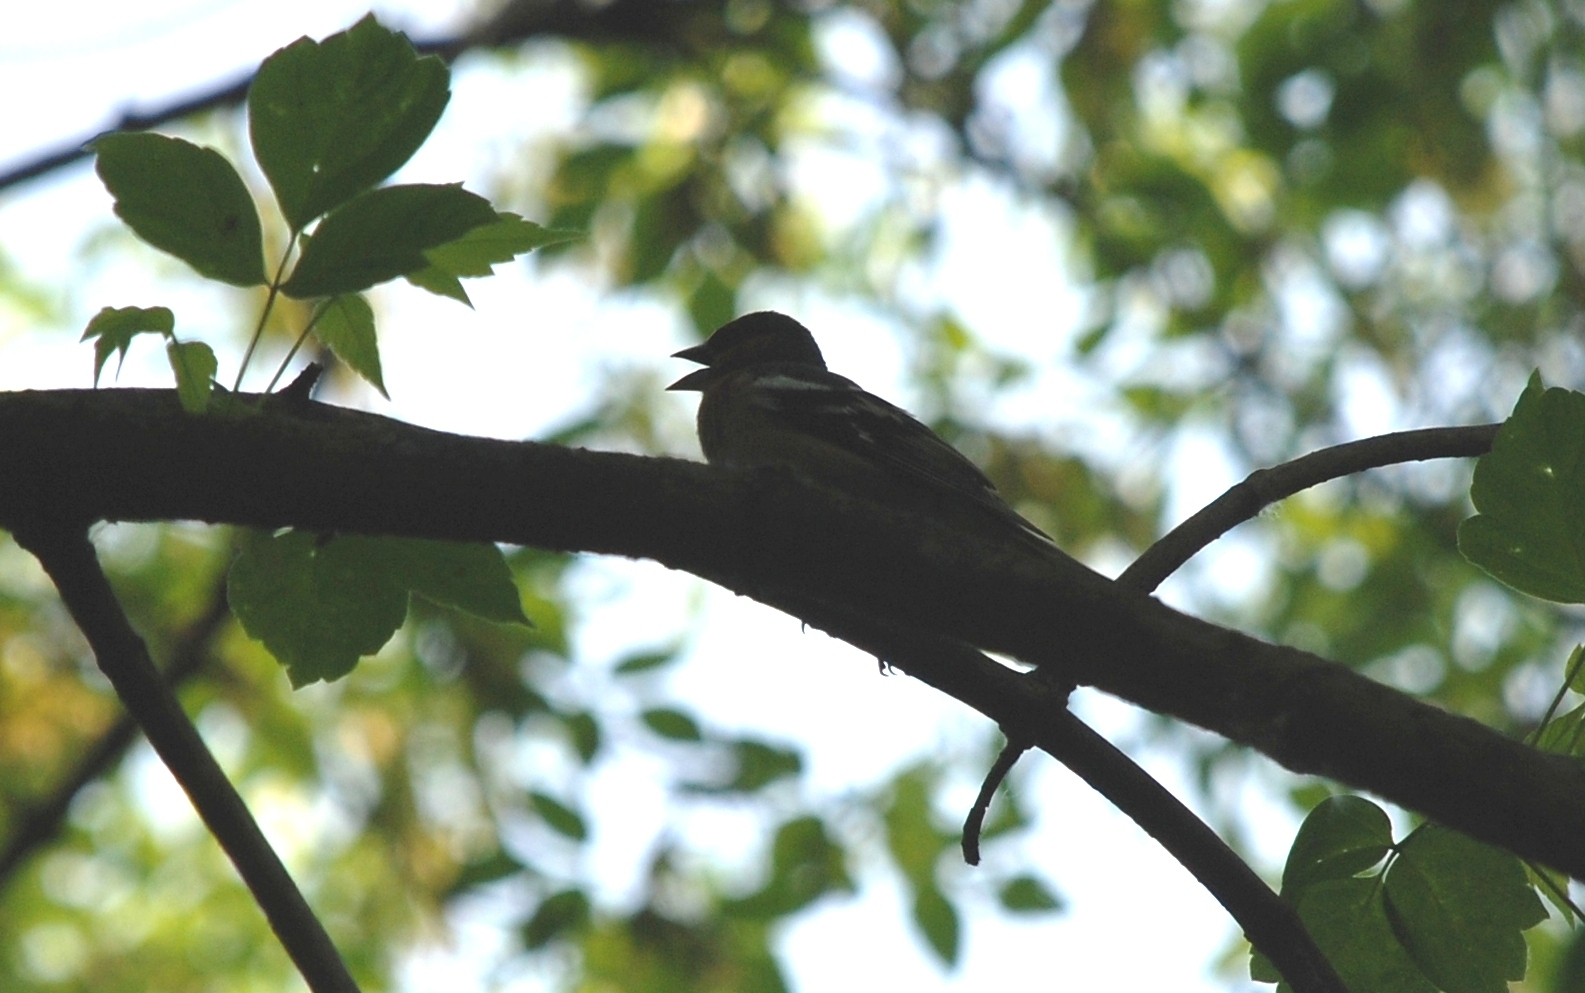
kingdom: Animalia
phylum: Chordata
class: Aves
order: Passeriformes
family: Fringillidae
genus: Fringilla
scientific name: Fringilla coelebs
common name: Common chaffinch
